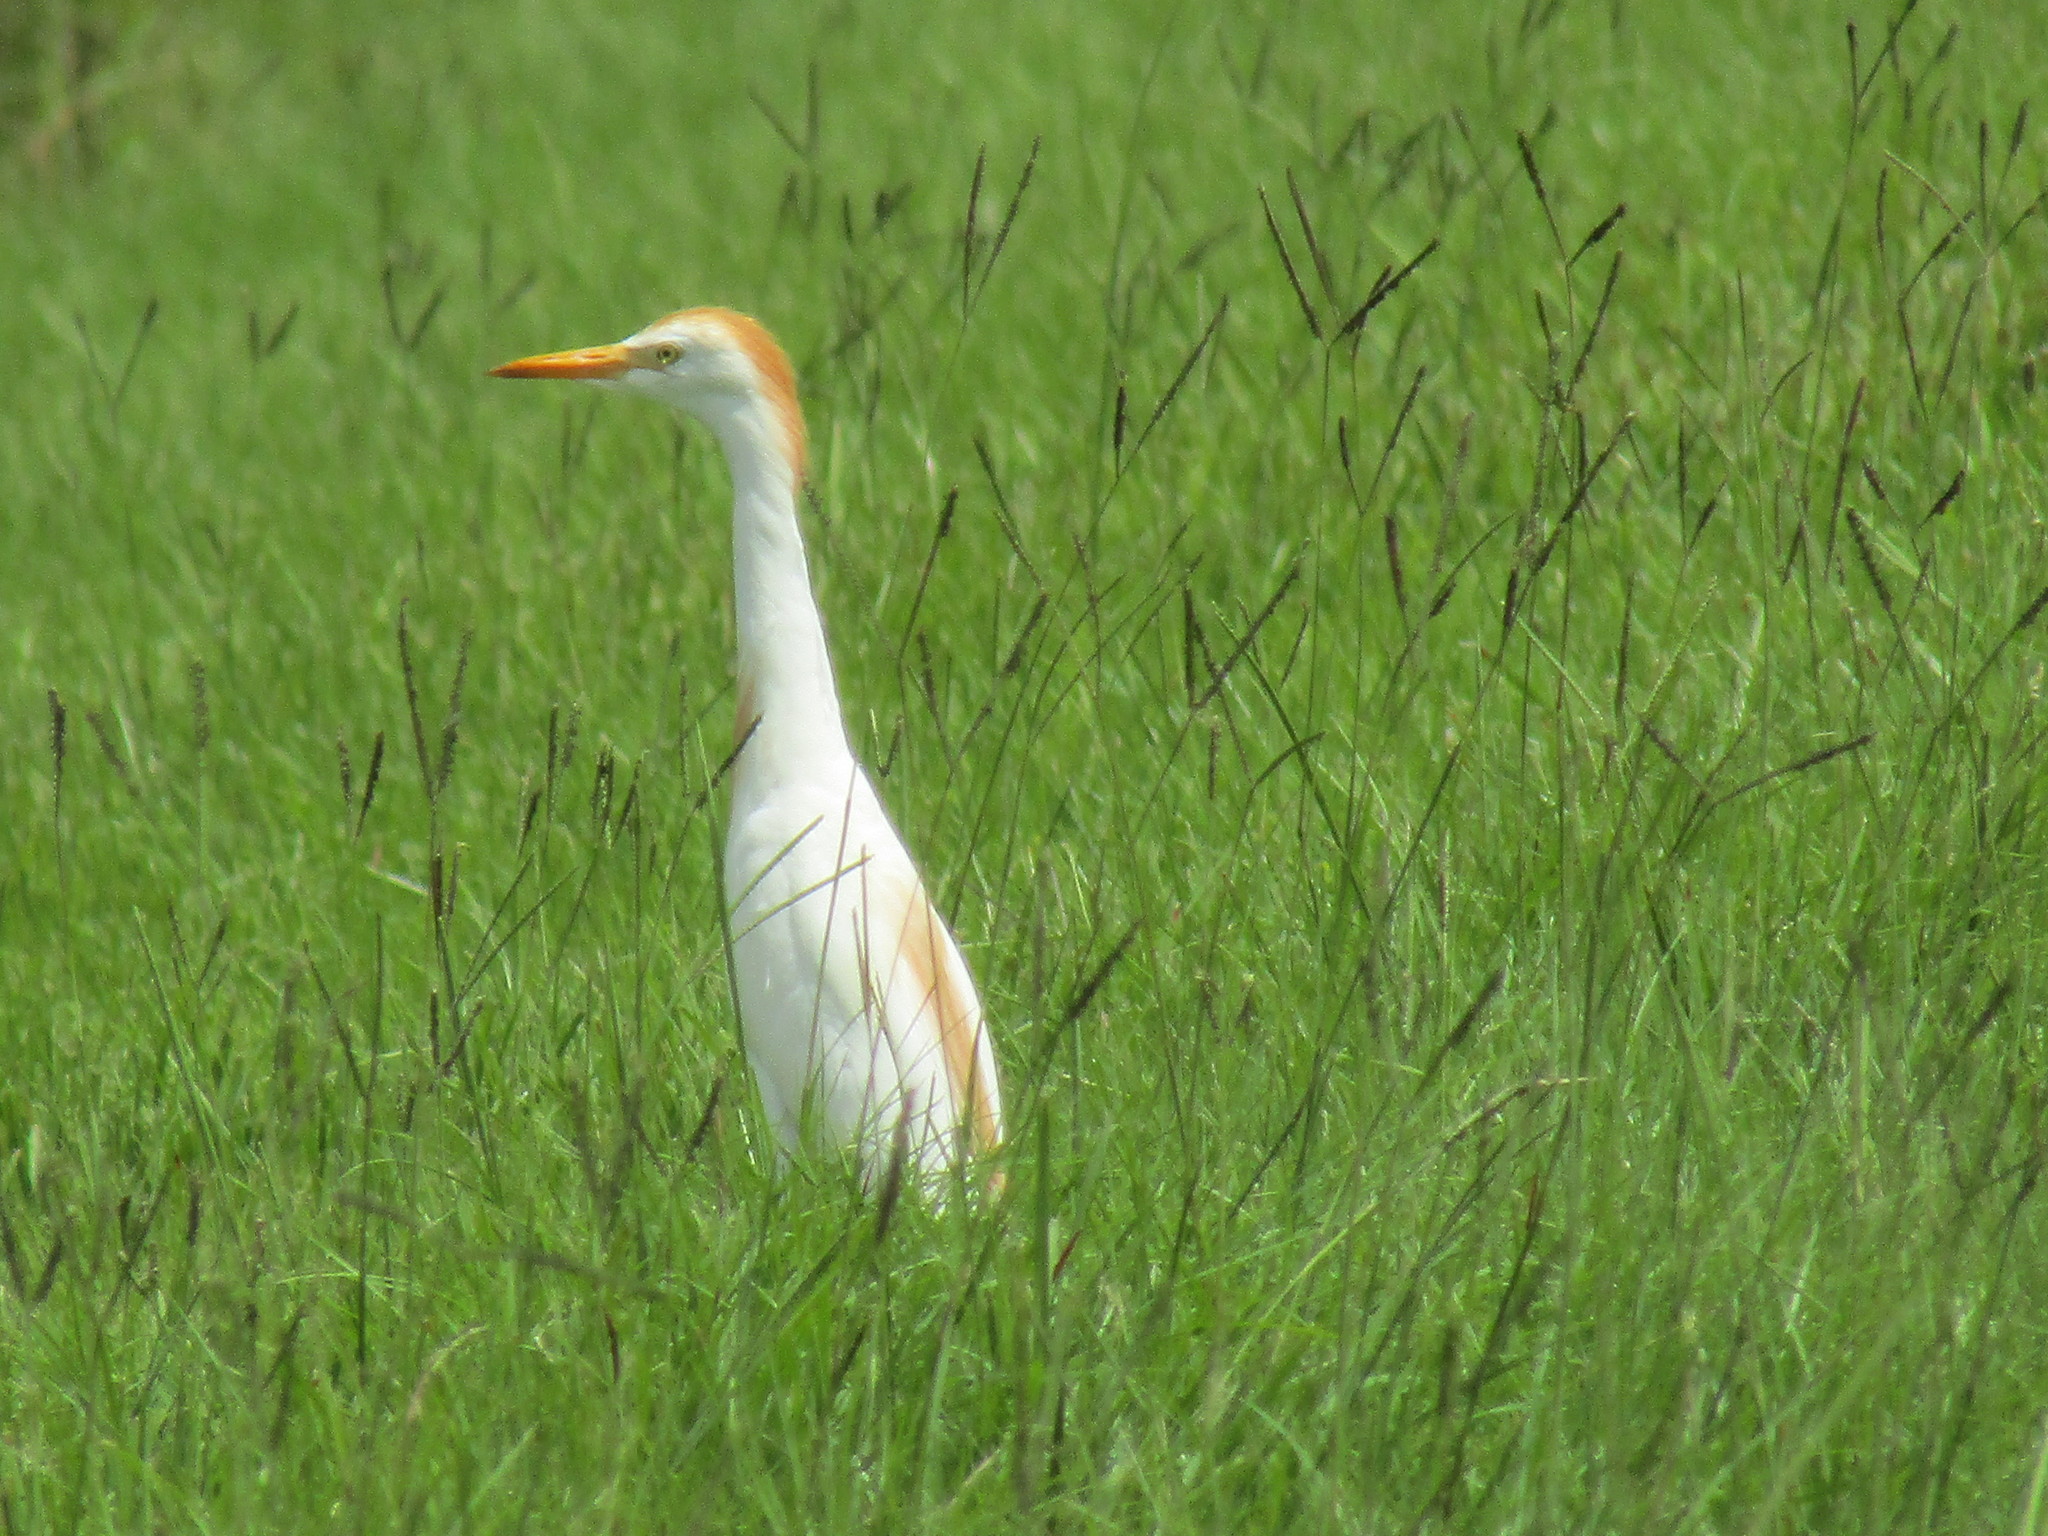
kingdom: Animalia
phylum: Chordata
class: Aves
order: Pelecaniformes
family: Ardeidae
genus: Bubulcus
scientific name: Bubulcus ibis
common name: Cattle egret
